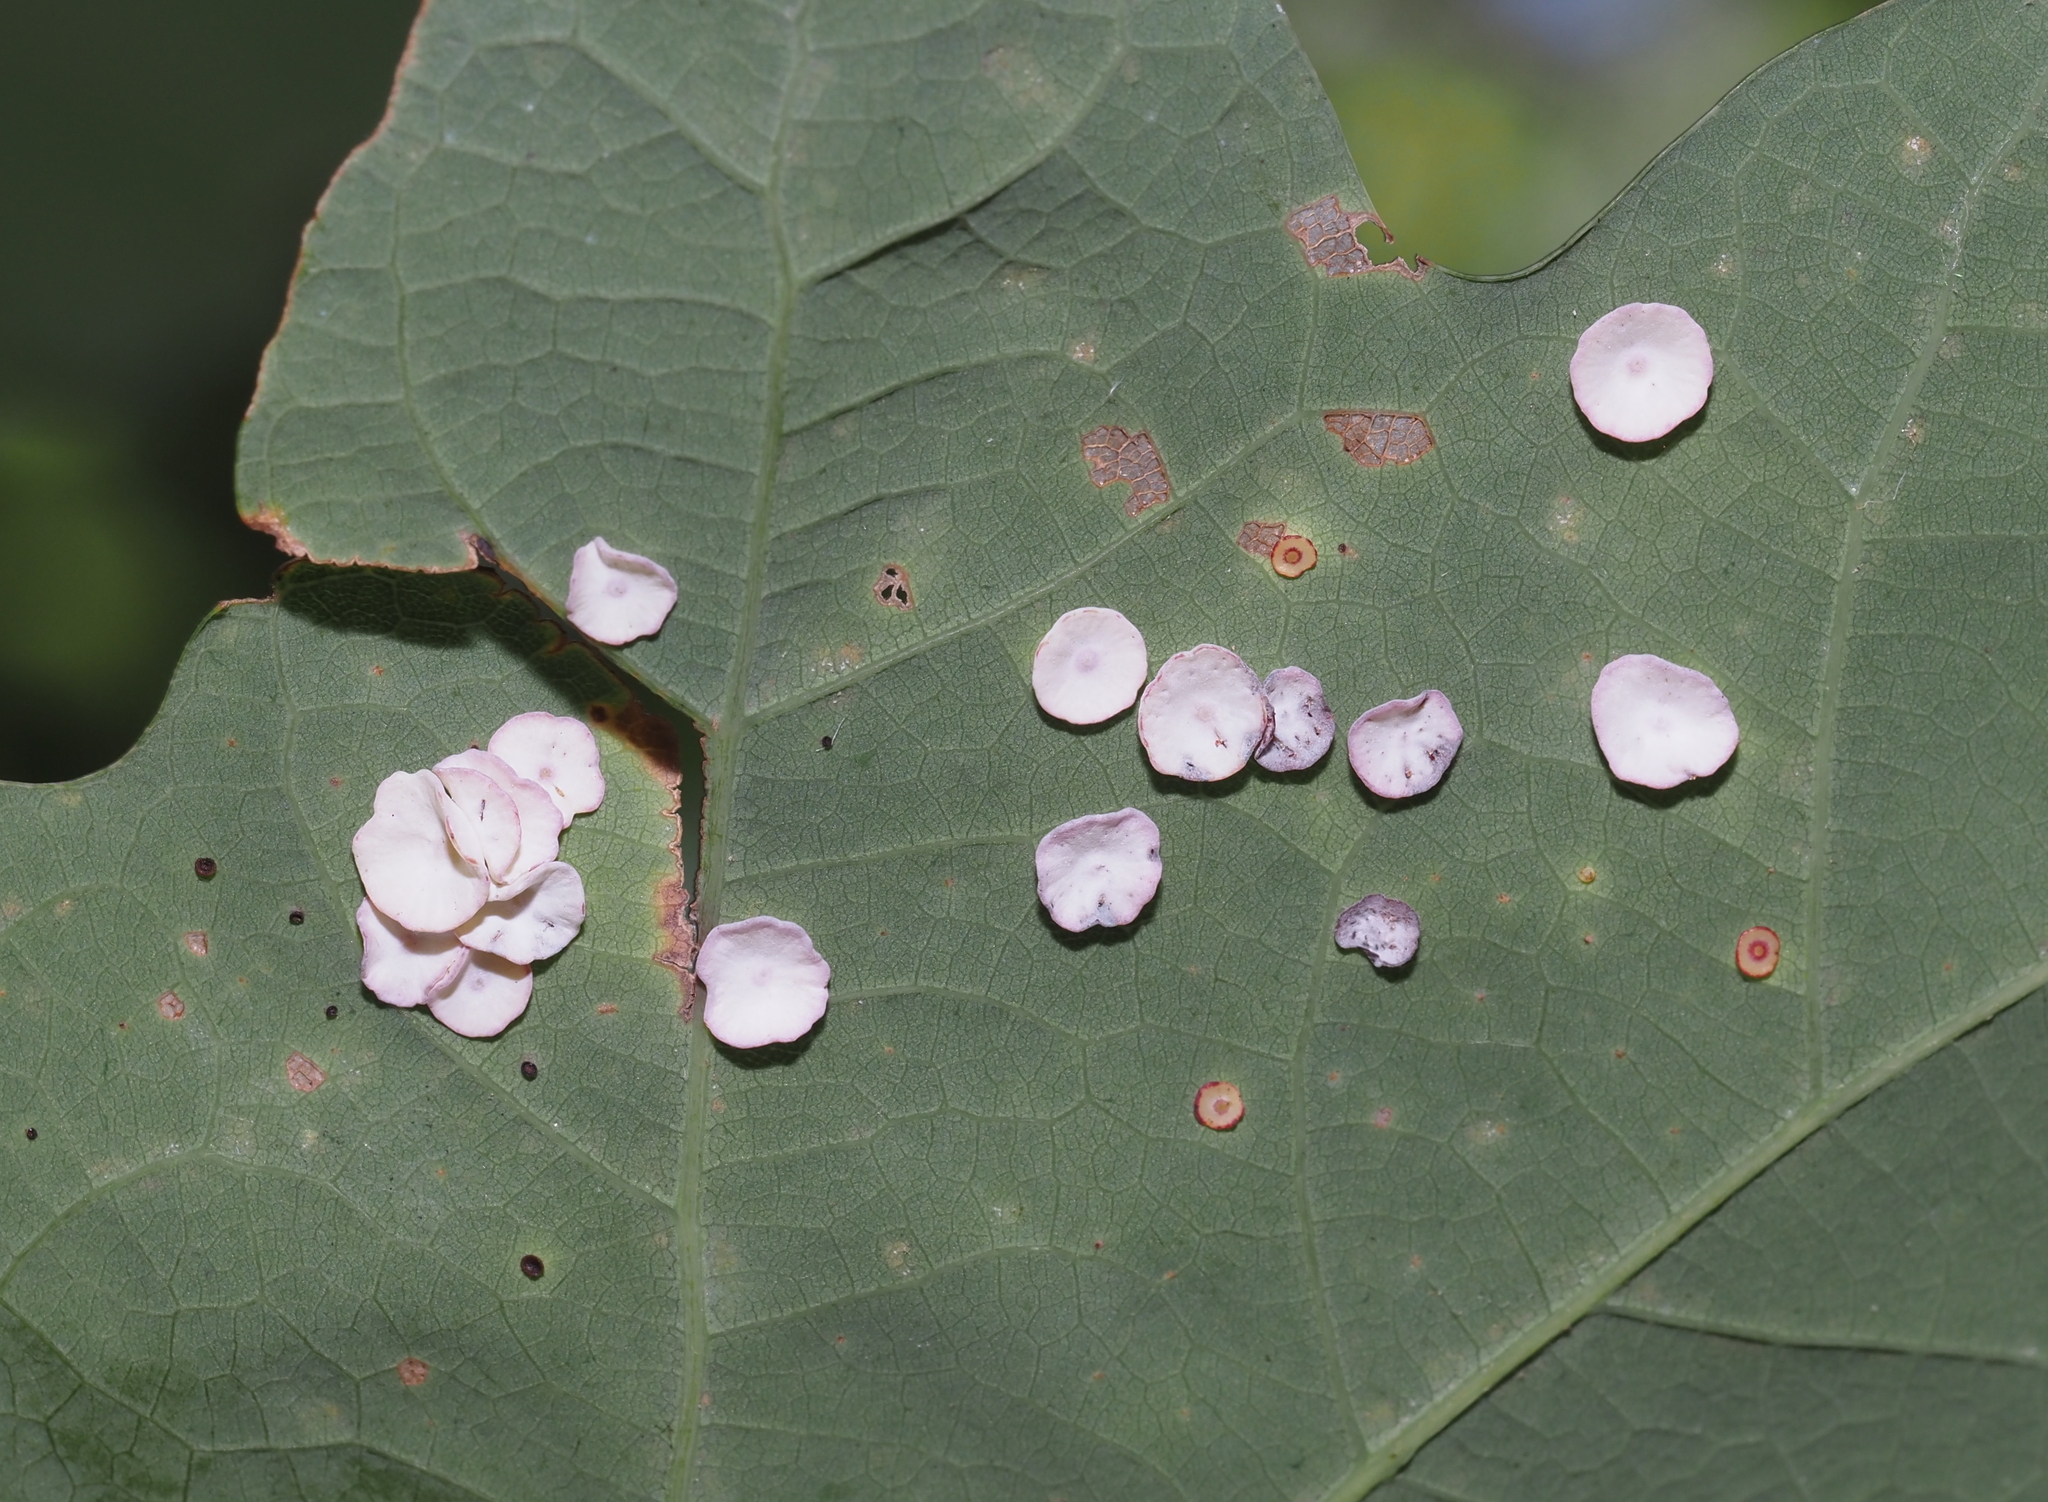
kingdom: Animalia
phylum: Arthropoda
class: Insecta
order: Hymenoptera
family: Cynipidae
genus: Phylloteras
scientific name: Phylloteras poculum
